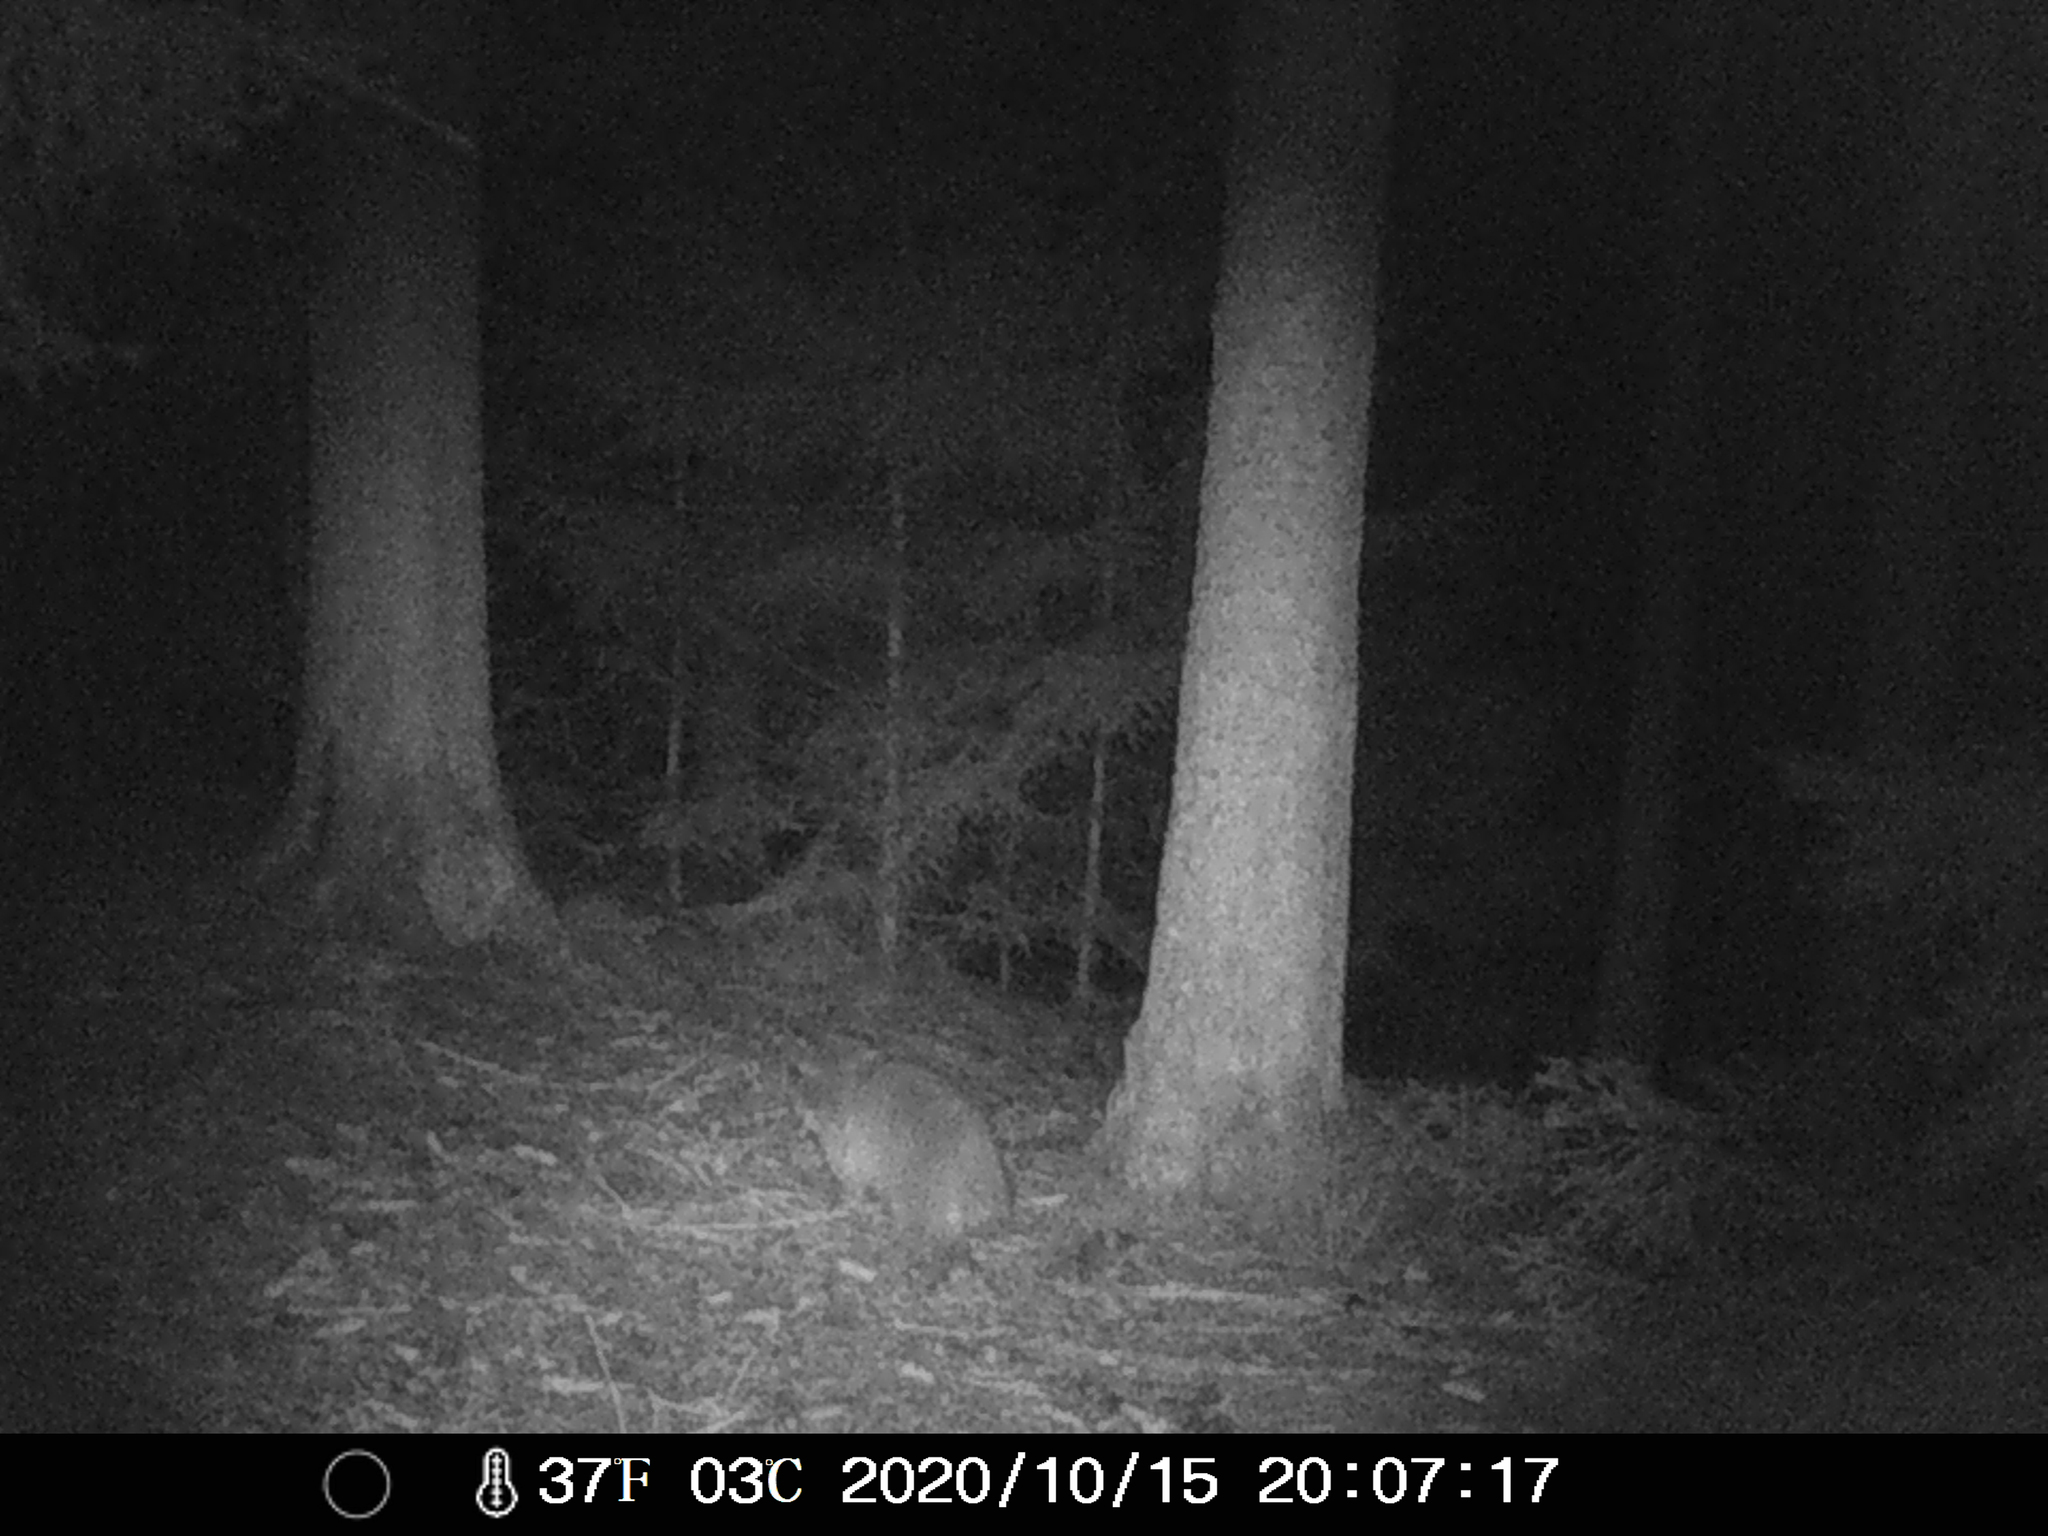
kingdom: Animalia
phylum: Chordata
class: Mammalia
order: Carnivora
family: Procyonidae
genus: Procyon
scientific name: Procyon lotor
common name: Raccoon
